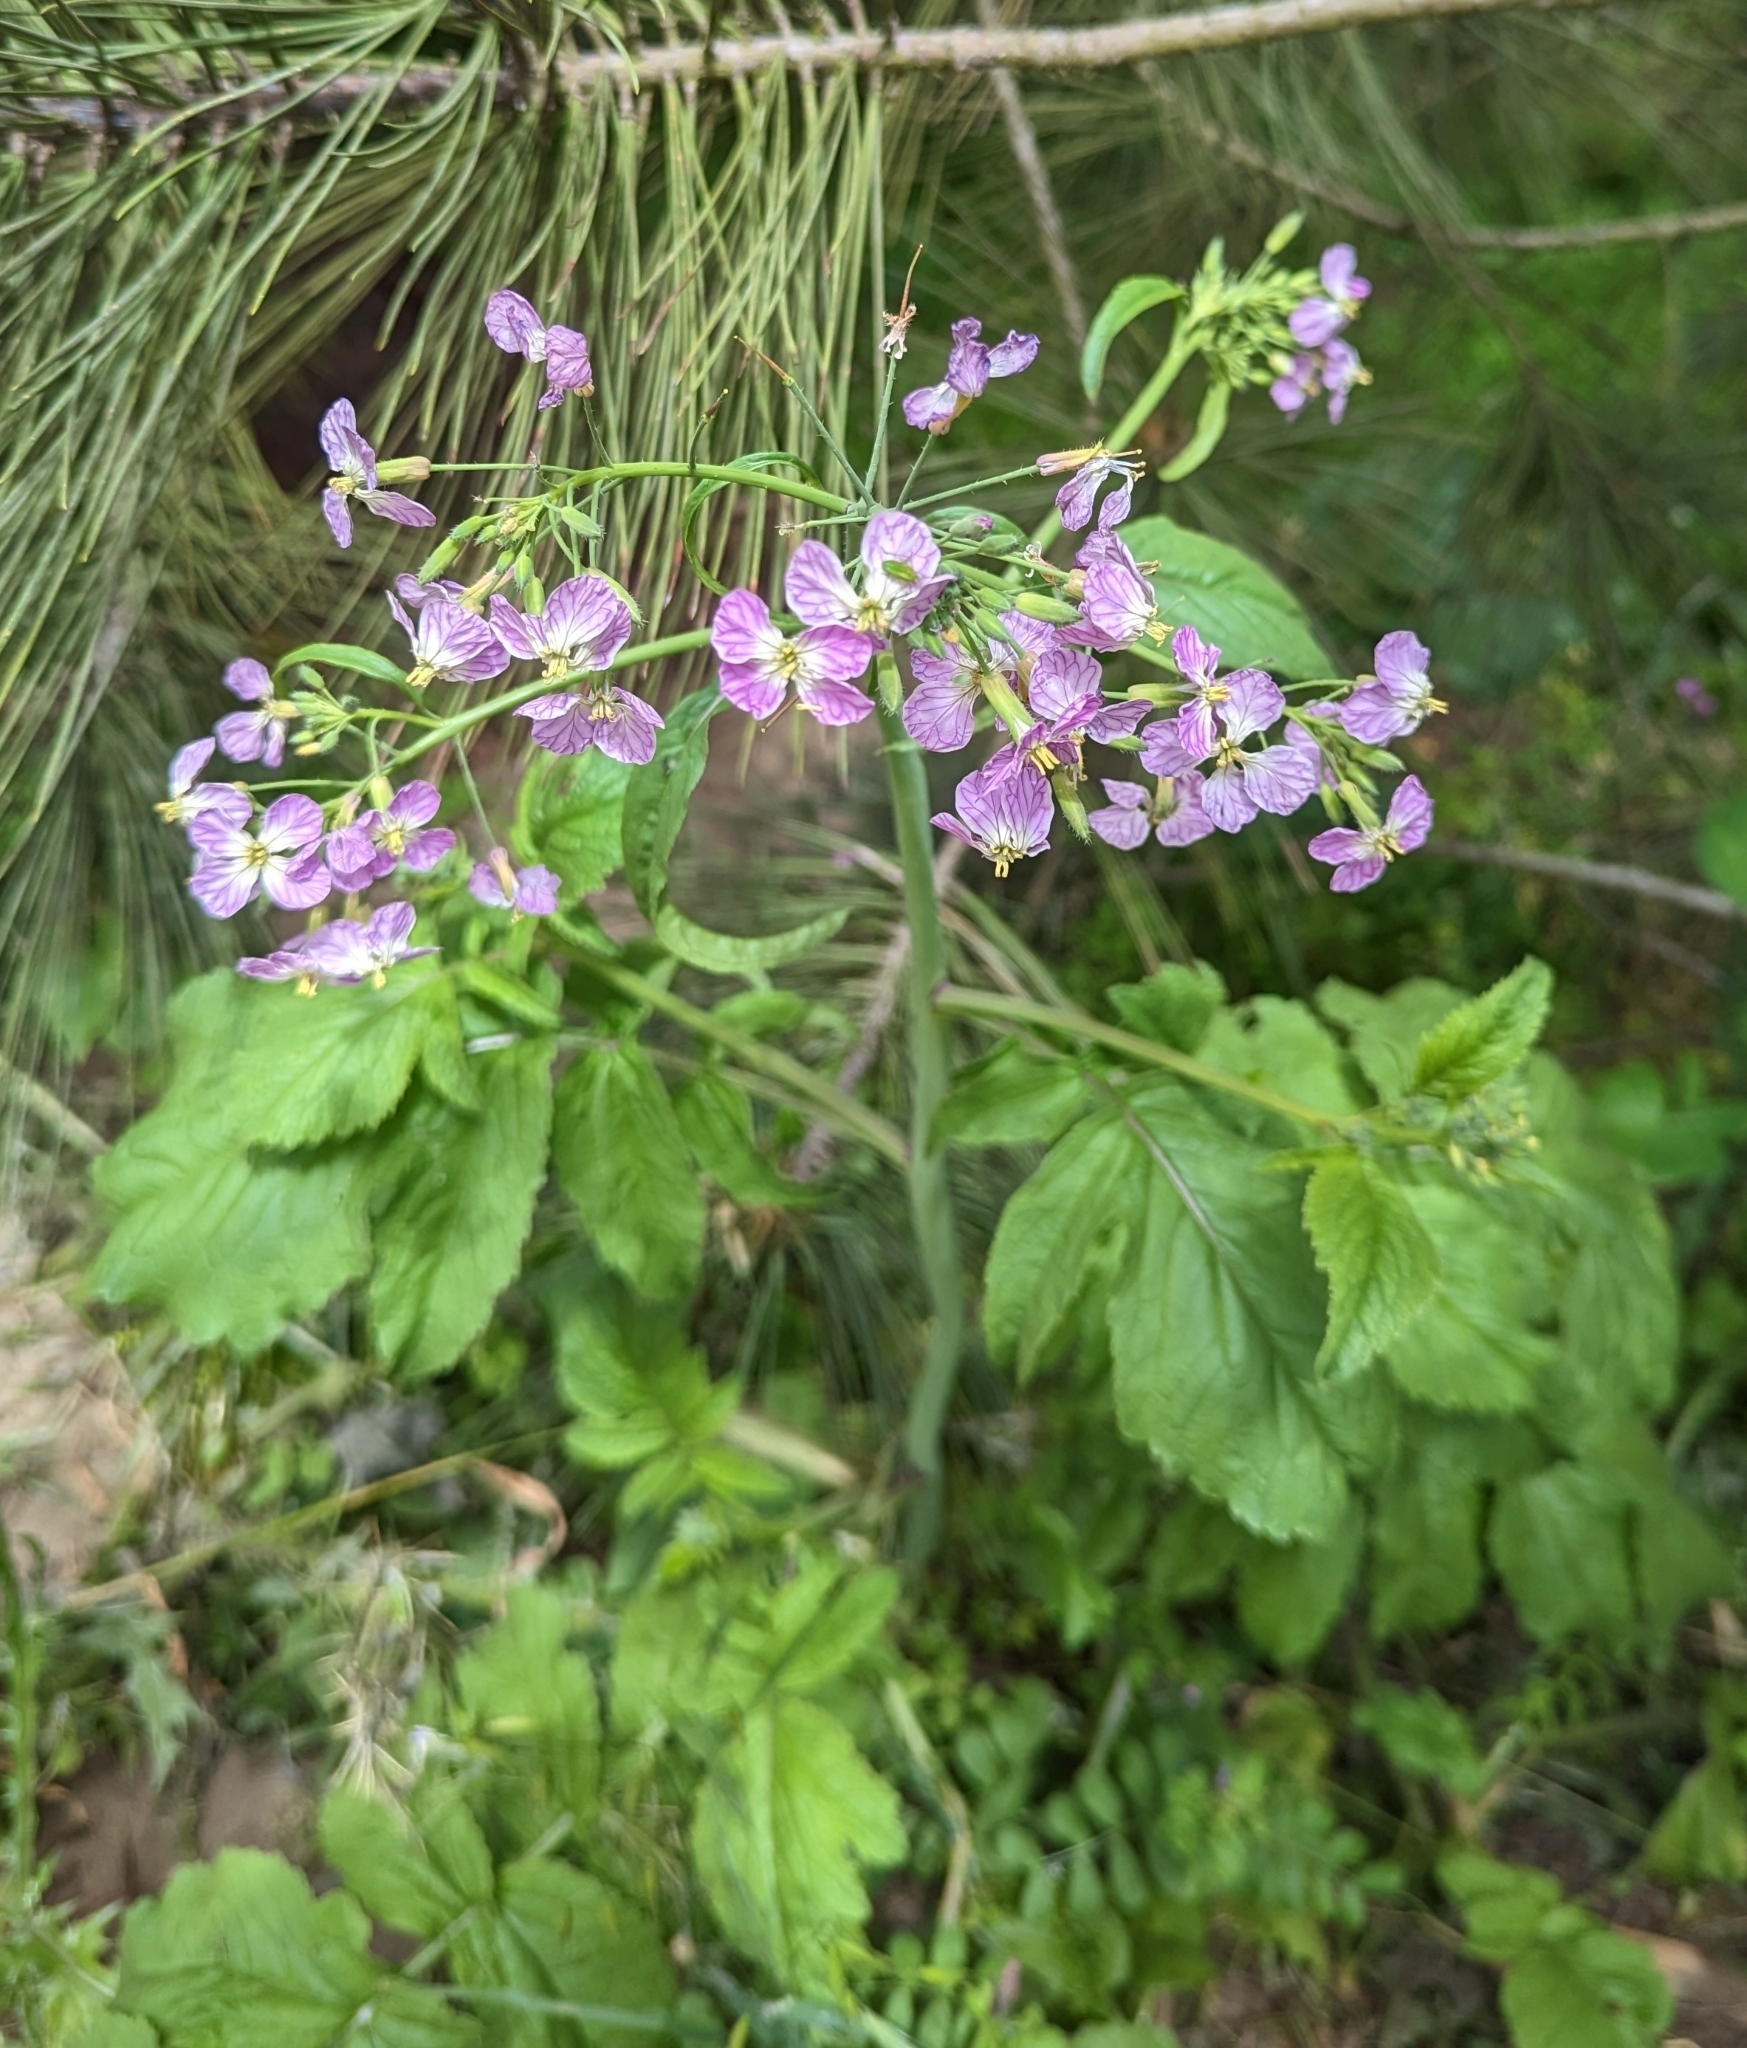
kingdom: Plantae
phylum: Tracheophyta
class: Magnoliopsida
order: Brassicales
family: Brassicaceae
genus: Raphanus
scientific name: Raphanus sativus
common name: Cultivated radish
